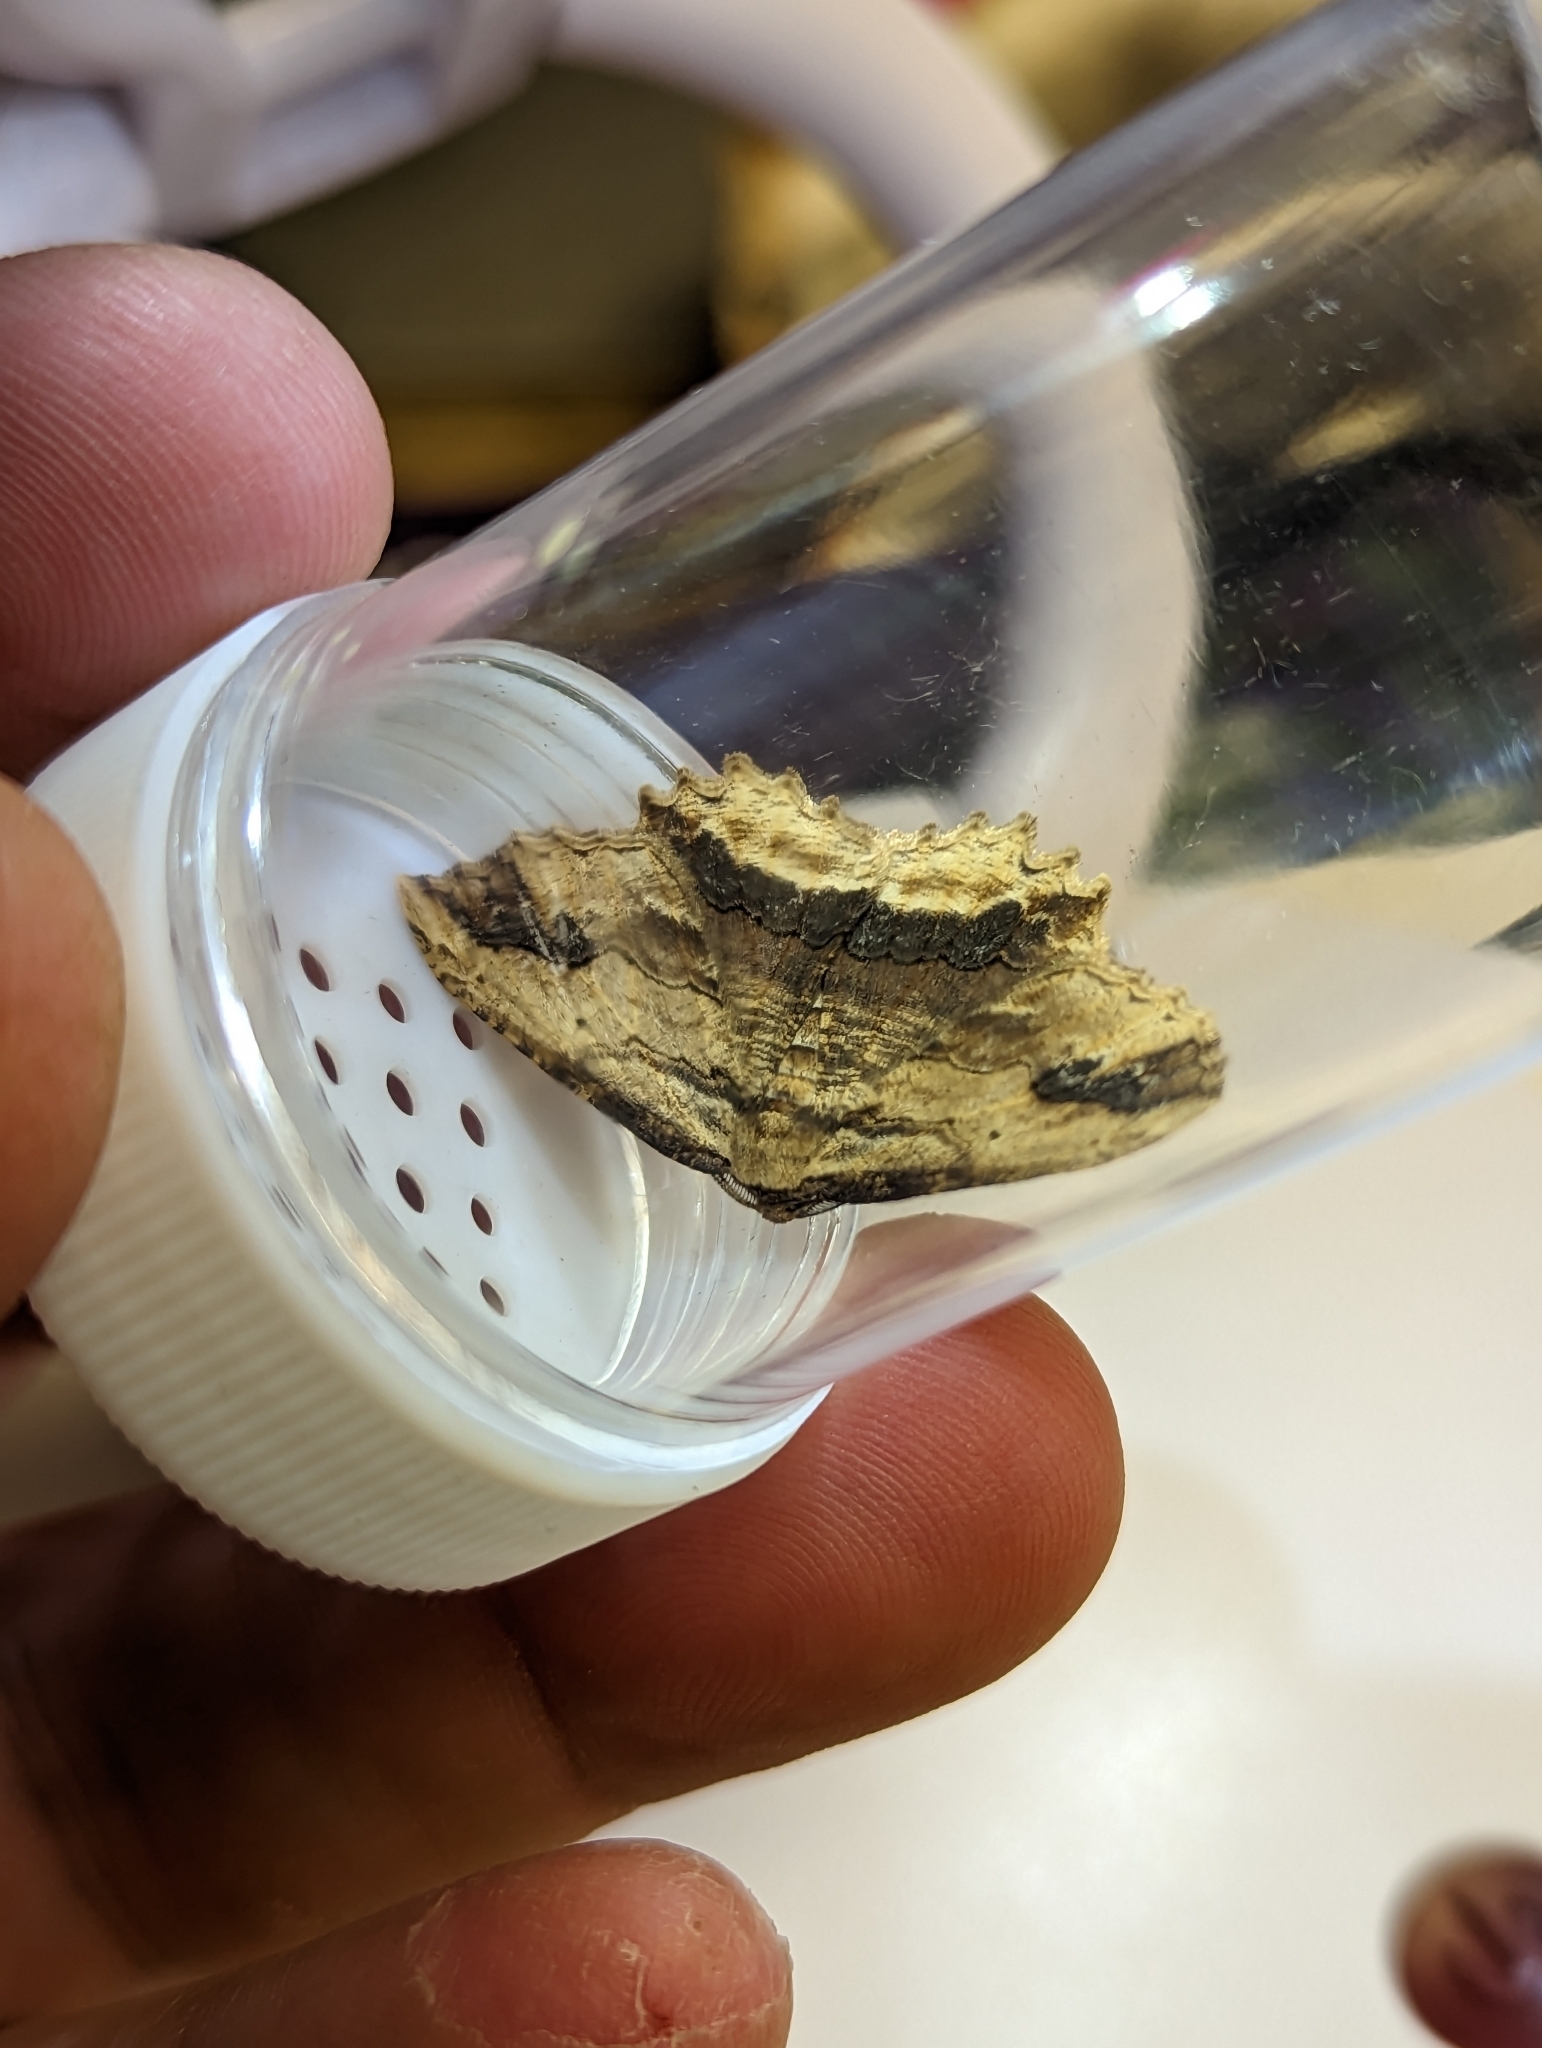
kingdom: Animalia
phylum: Arthropoda
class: Insecta
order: Lepidoptera
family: Geometridae
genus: Menophra
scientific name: Menophra abruptaria
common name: Waved umber
